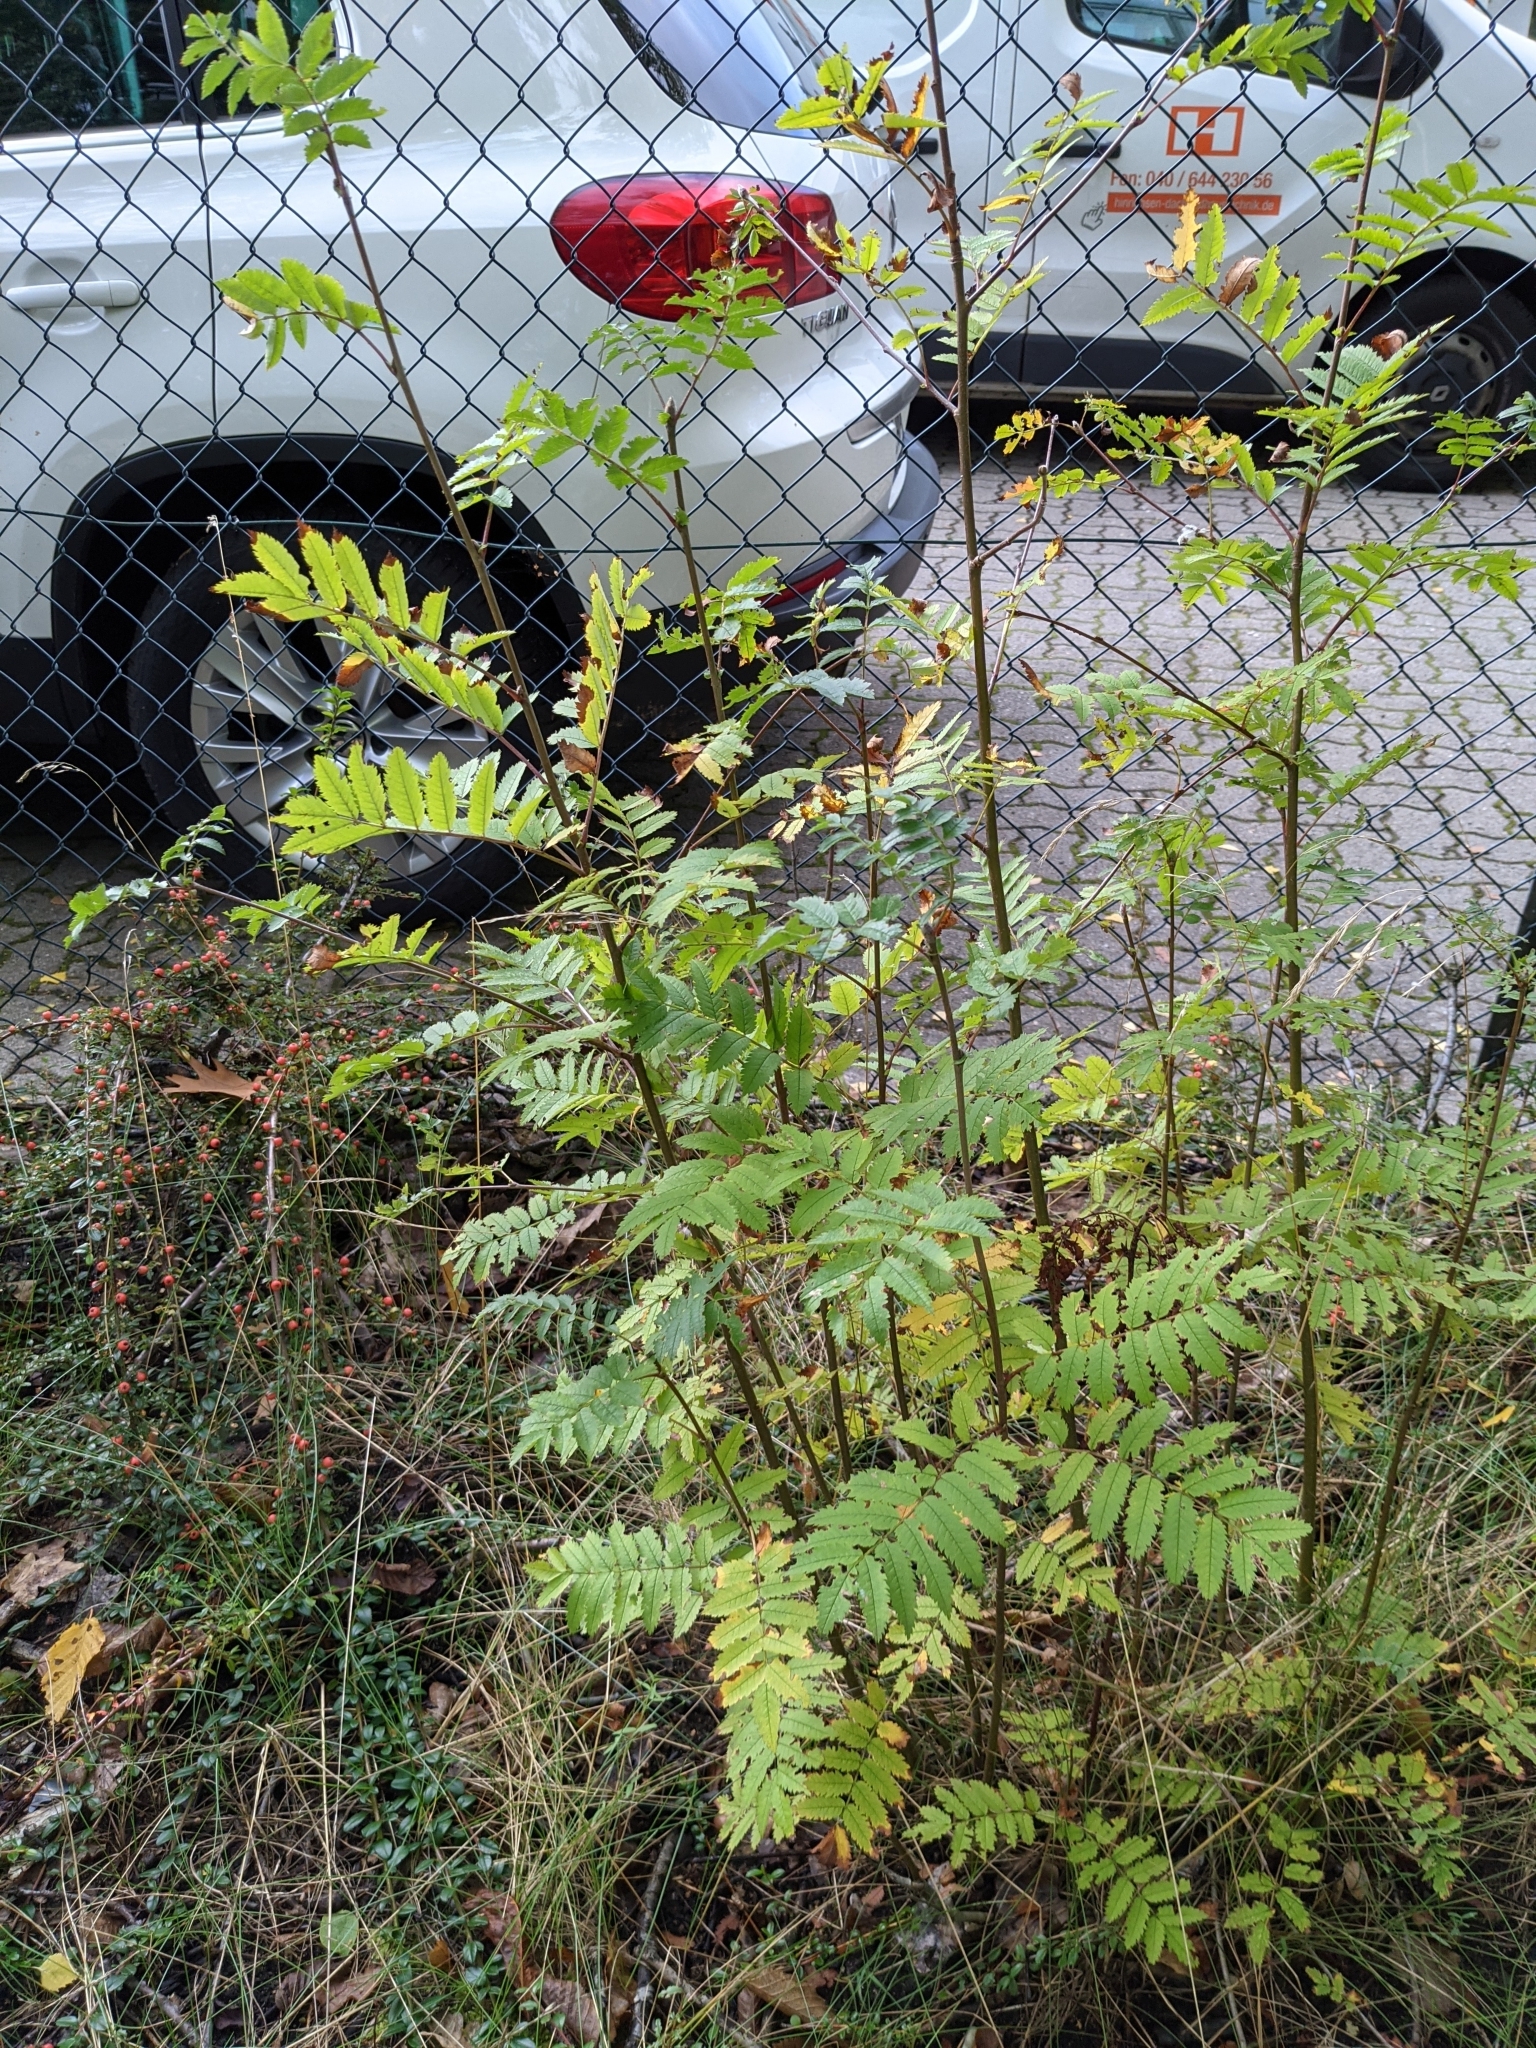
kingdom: Plantae
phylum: Tracheophyta
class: Magnoliopsida
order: Rosales
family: Rosaceae
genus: Sorbus
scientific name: Sorbus aucuparia
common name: Rowan
